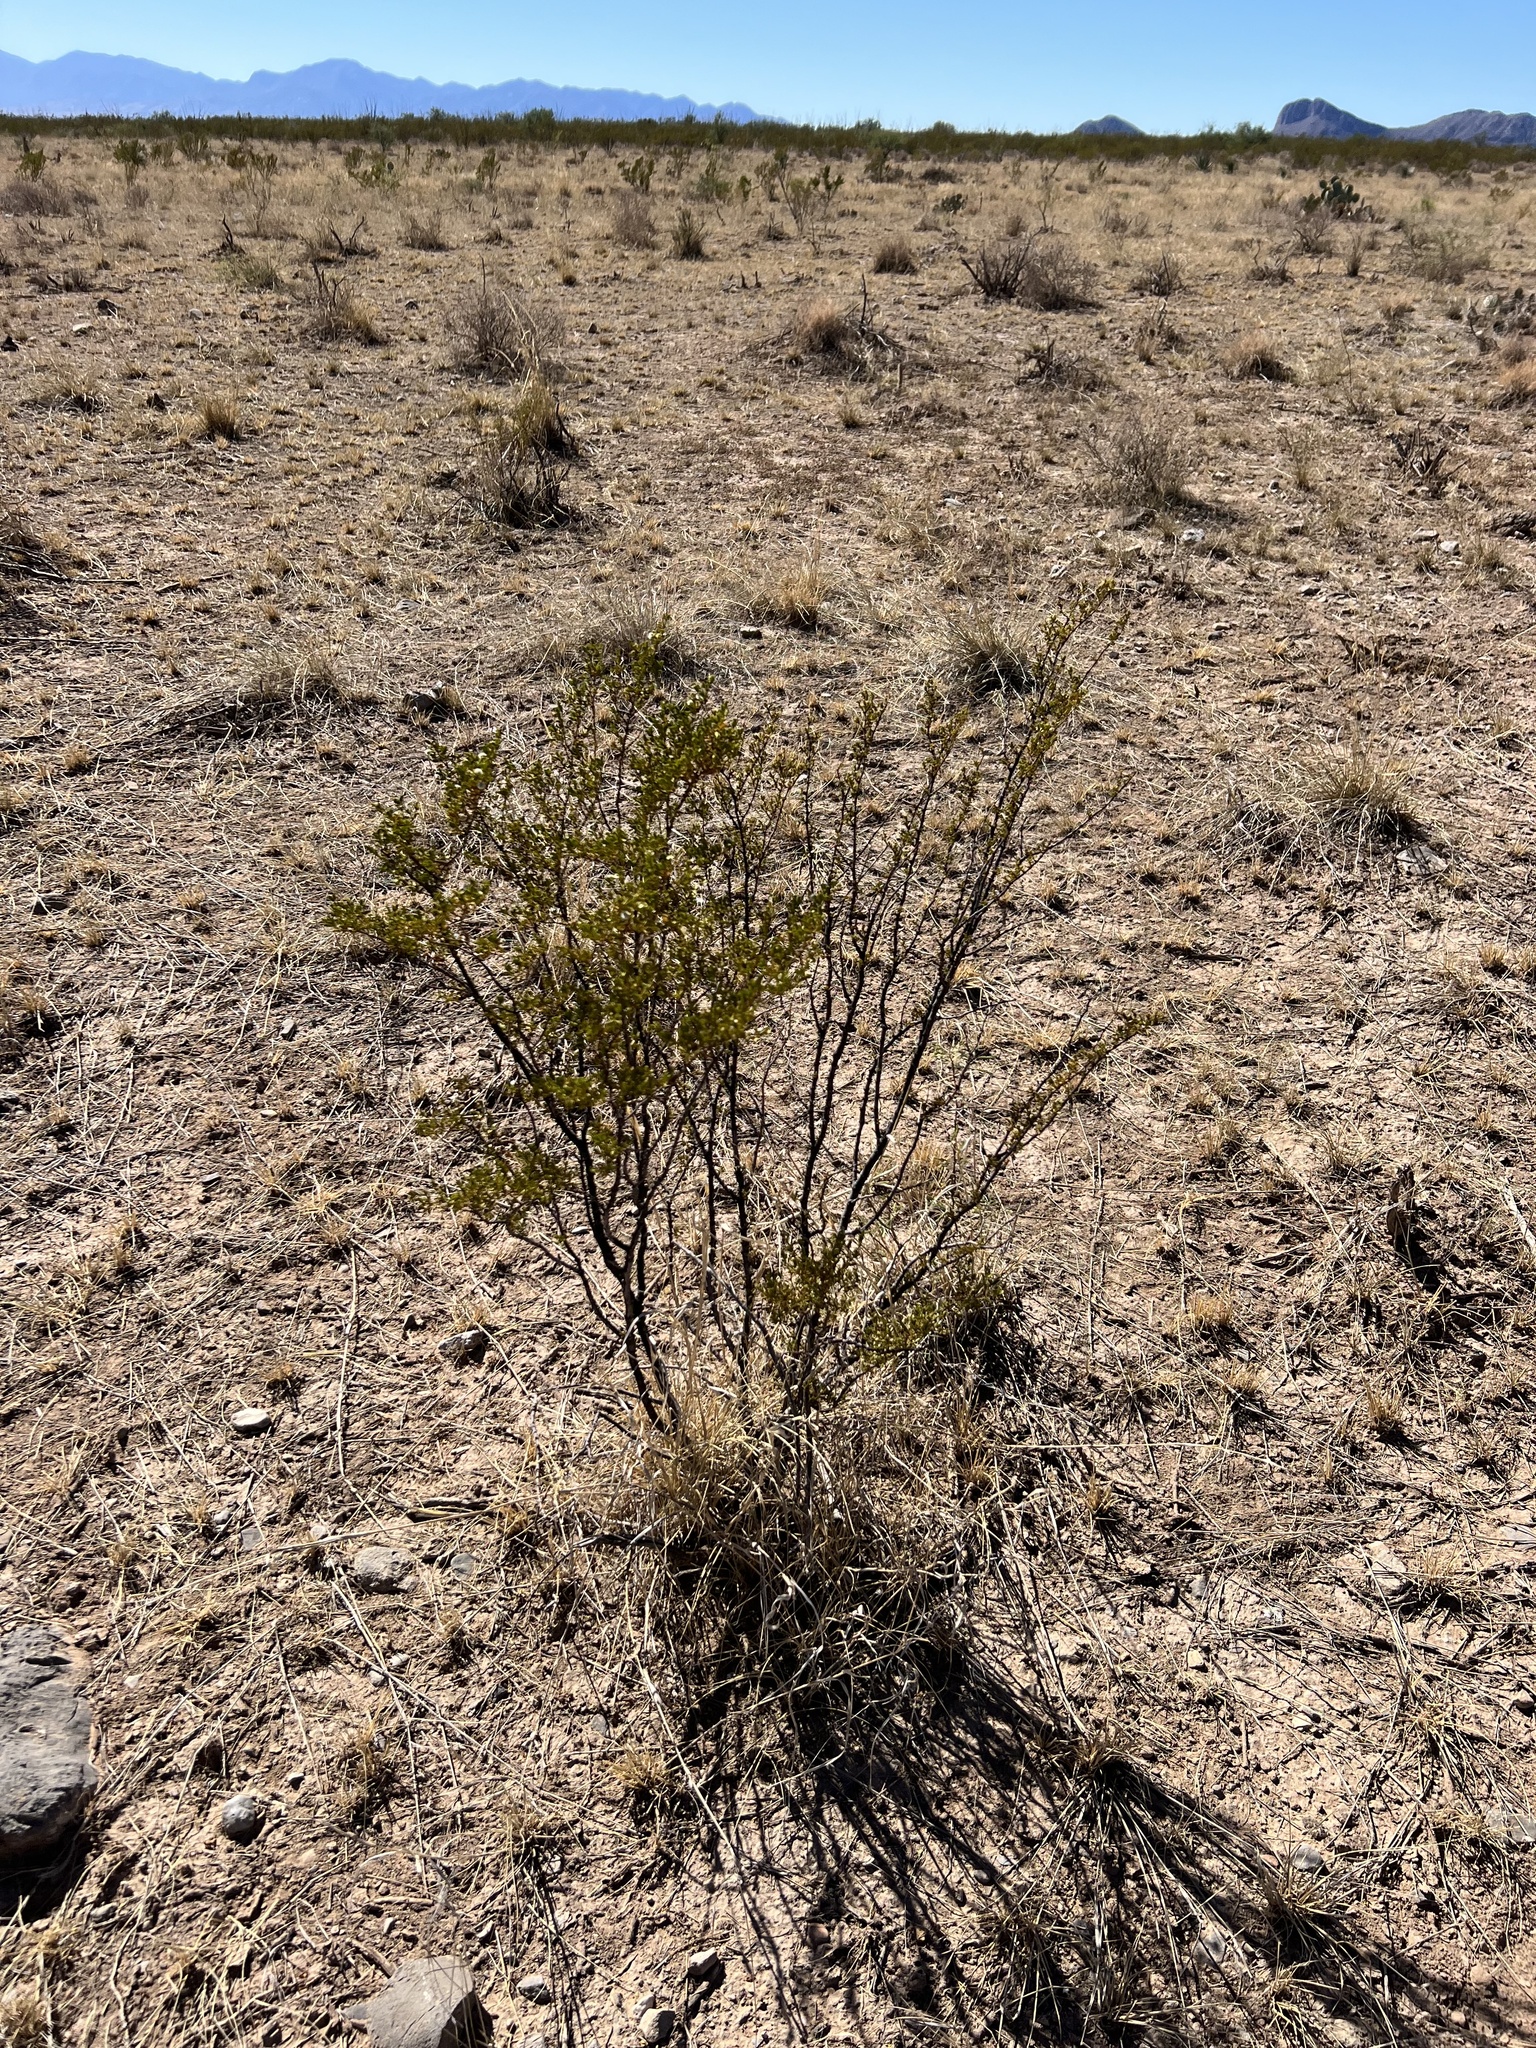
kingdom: Plantae
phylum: Tracheophyta
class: Magnoliopsida
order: Zygophyllales
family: Zygophyllaceae
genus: Larrea
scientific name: Larrea tridentata
